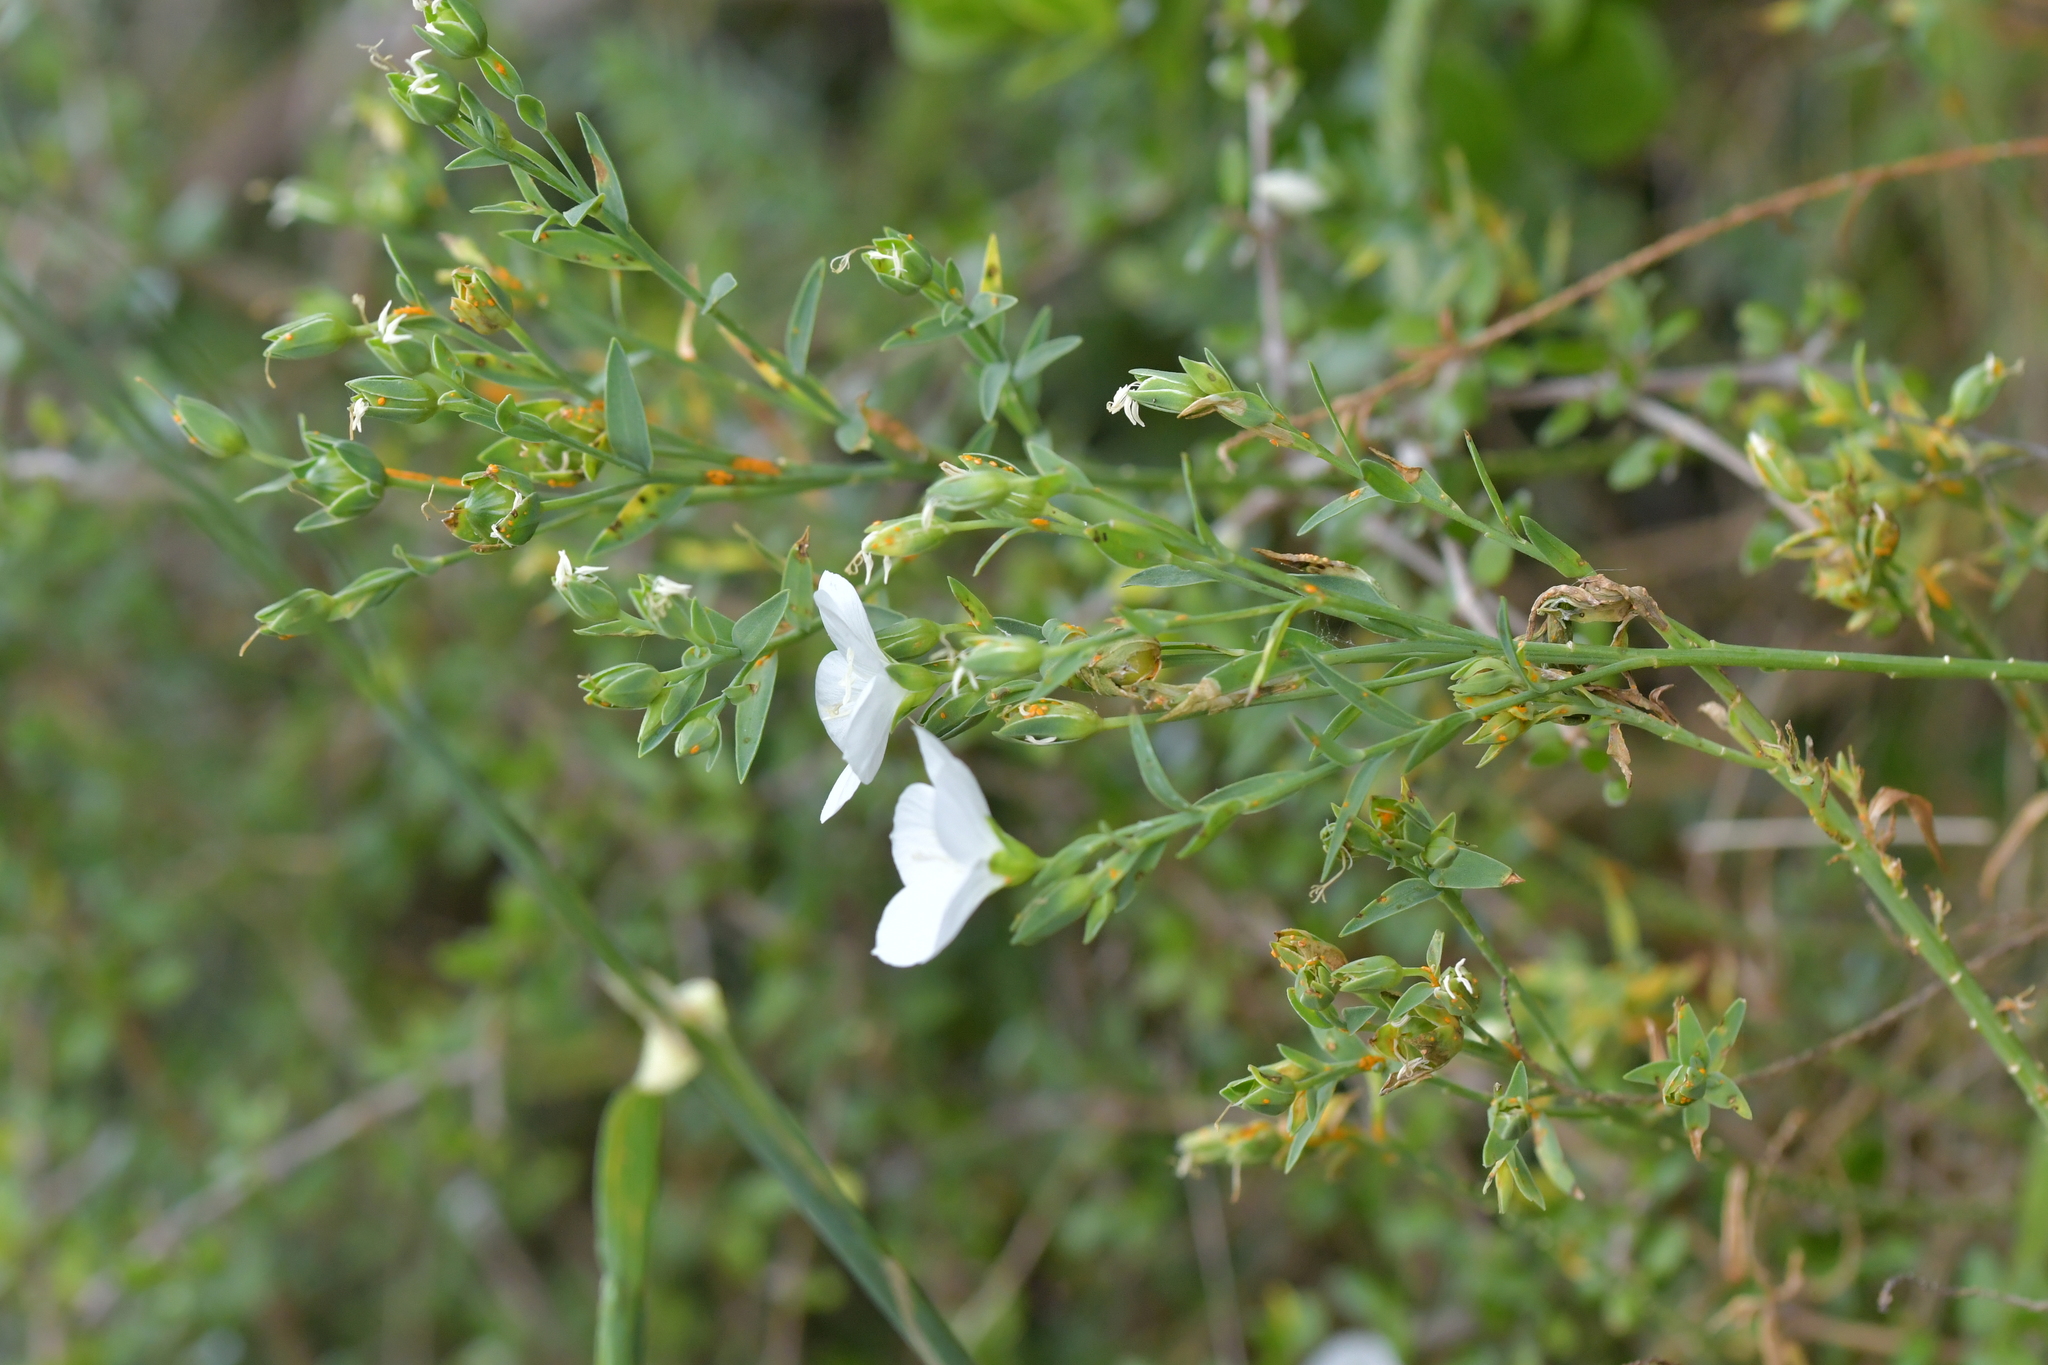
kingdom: Plantae
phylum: Tracheophyta
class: Magnoliopsida
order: Malpighiales
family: Linaceae
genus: Linum
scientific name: Linum monogynum
